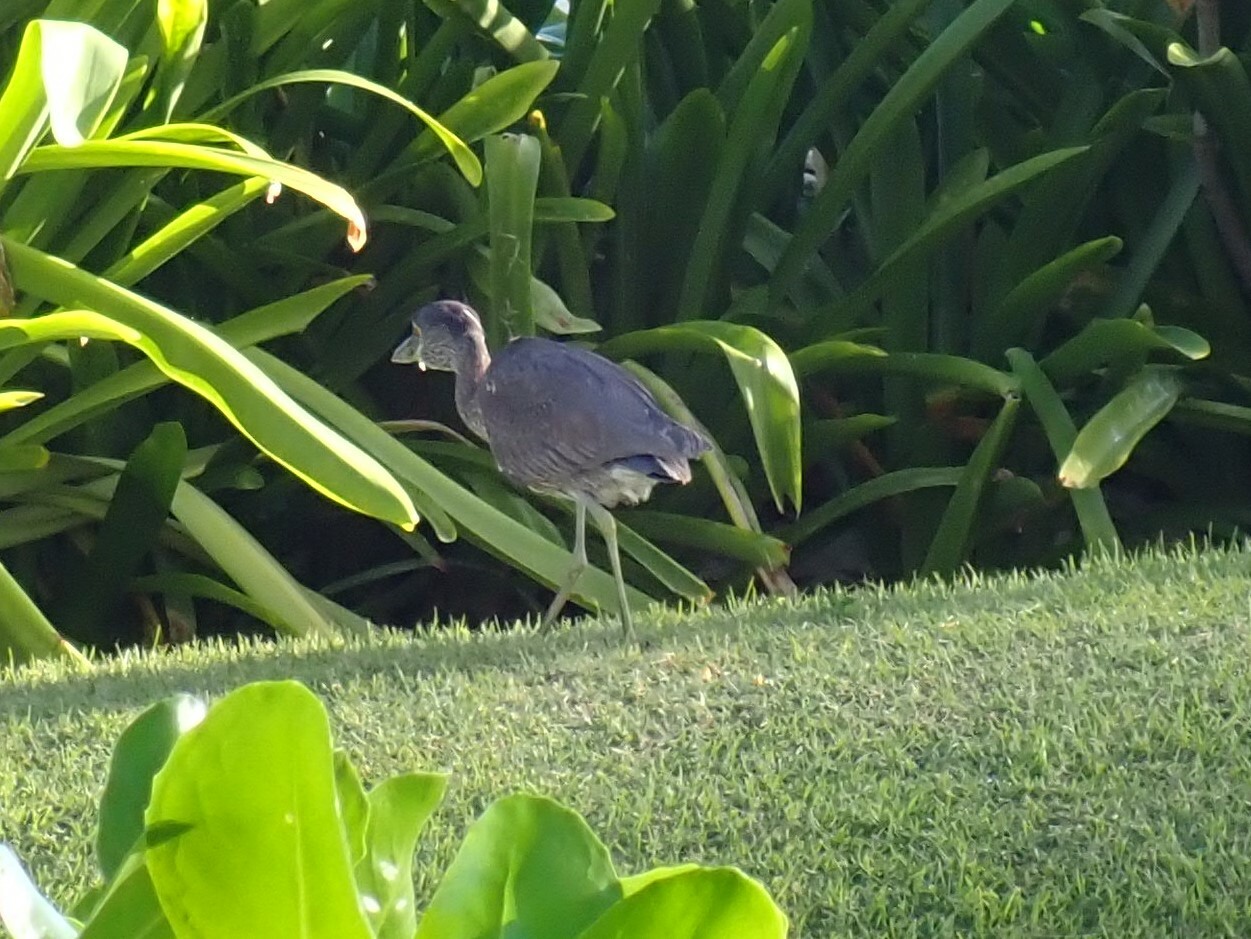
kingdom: Animalia
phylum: Chordata
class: Aves
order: Pelecaniformes
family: Ardeidae
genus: Nyctanassa
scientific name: Nyctanassa violacea
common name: Yellow-crowned night heron
